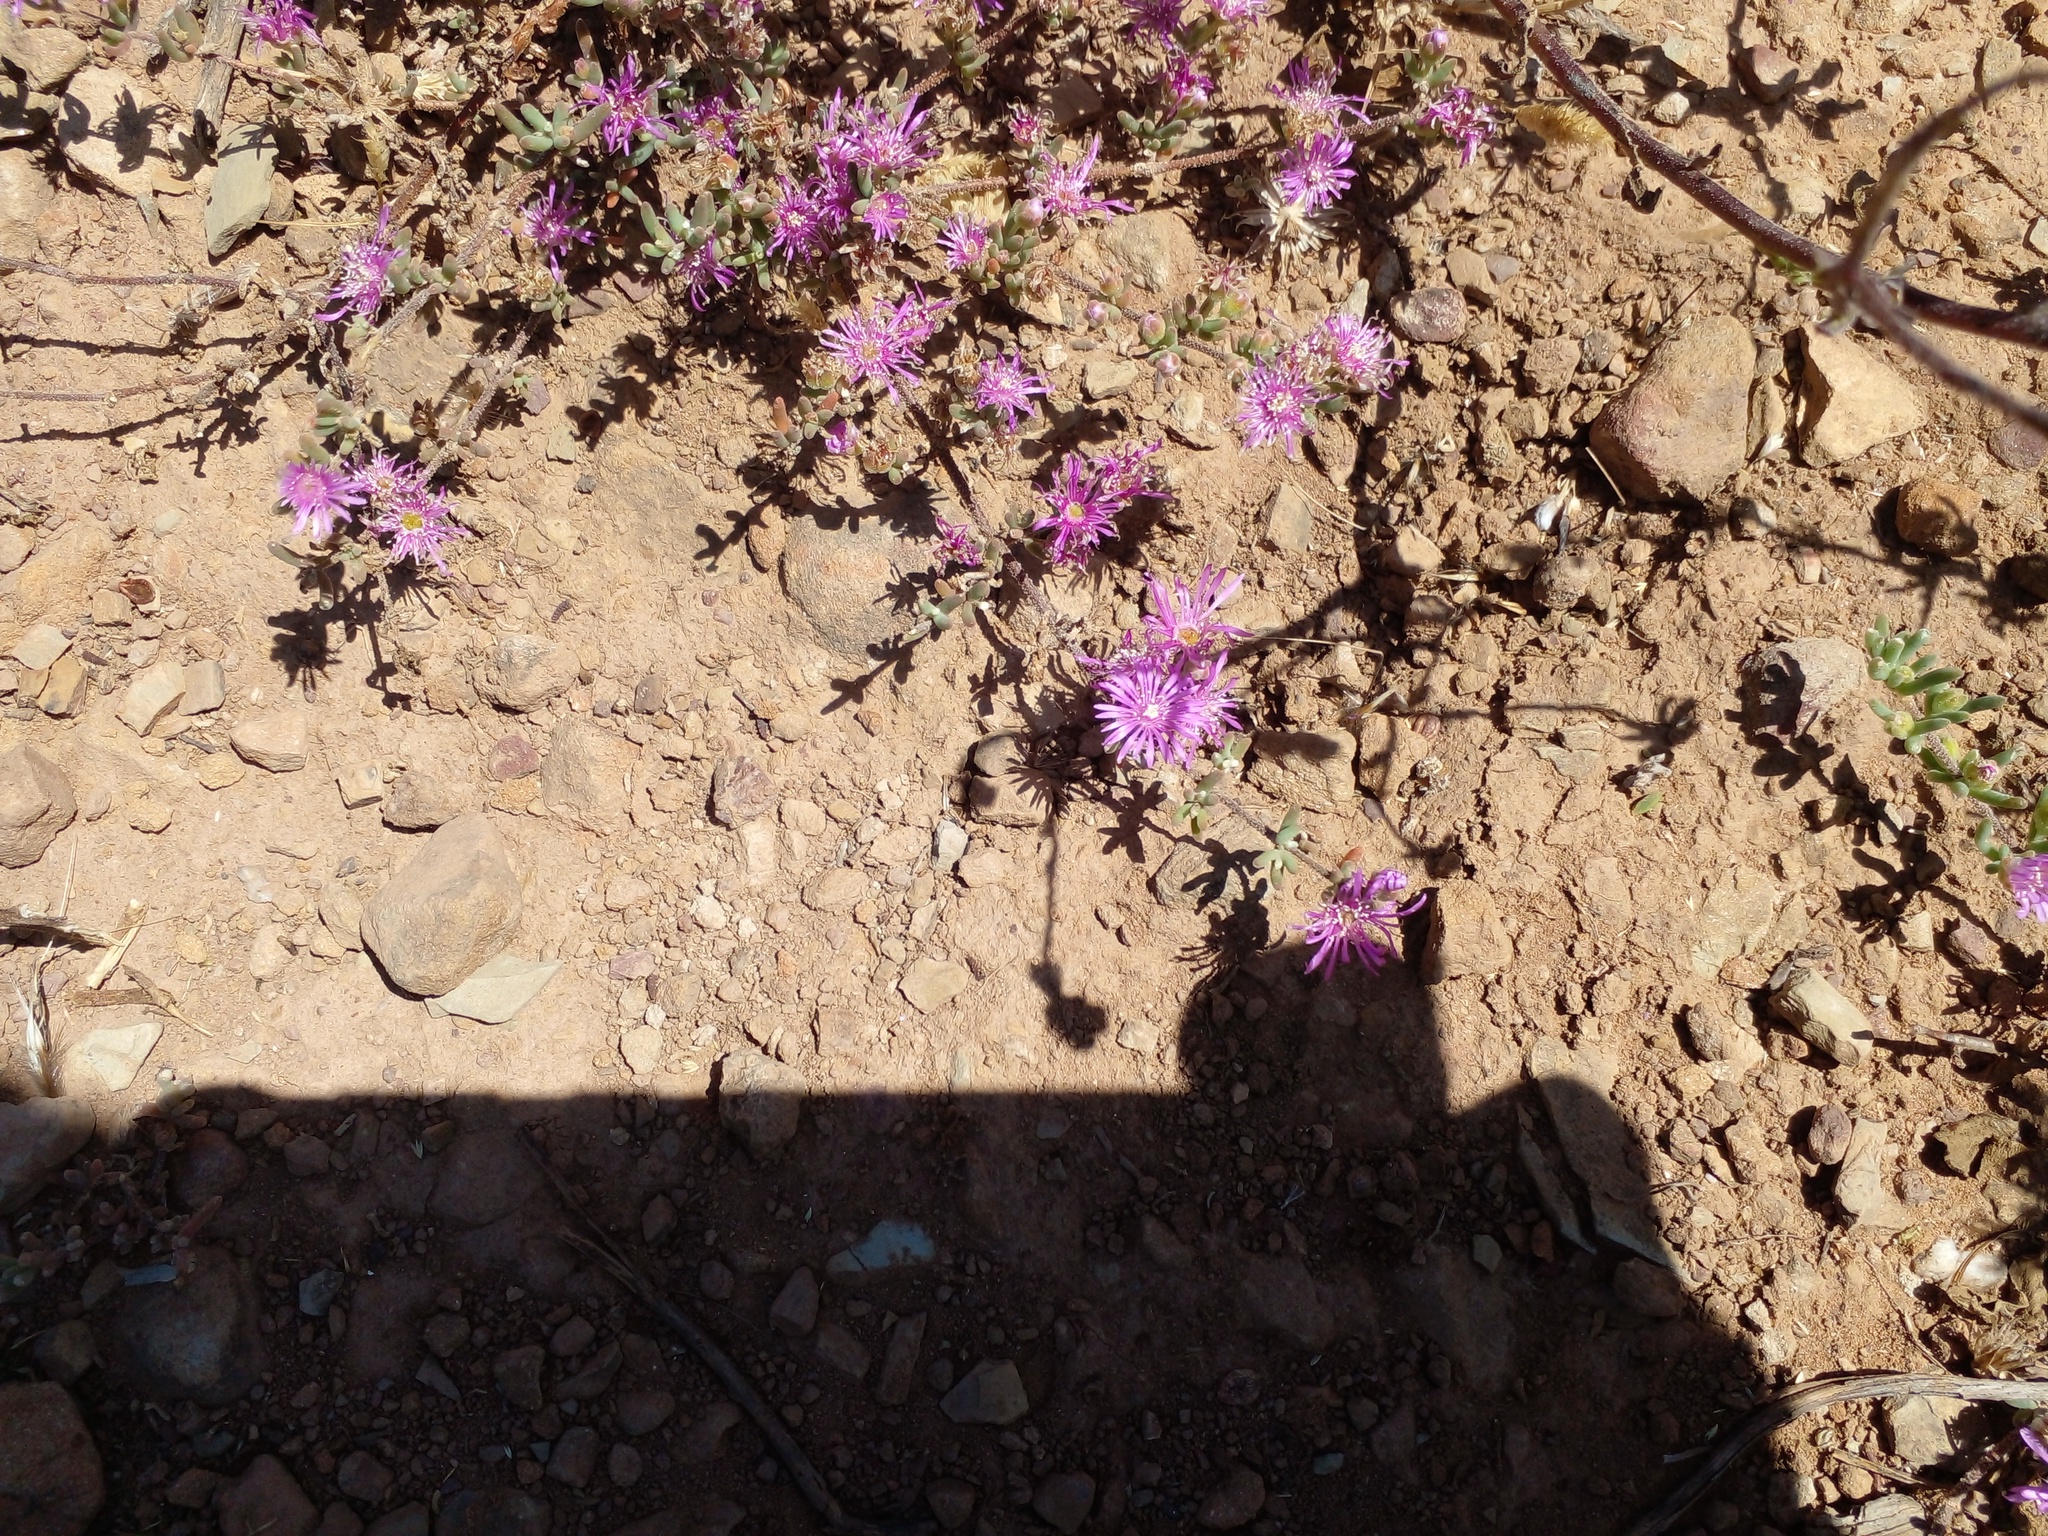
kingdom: Plantae
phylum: Tracheophyta
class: Magnoliopsida
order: Caryophyllales
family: Aizoaceae
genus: Drosanthemum
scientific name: Drosanthemum ambiguum
